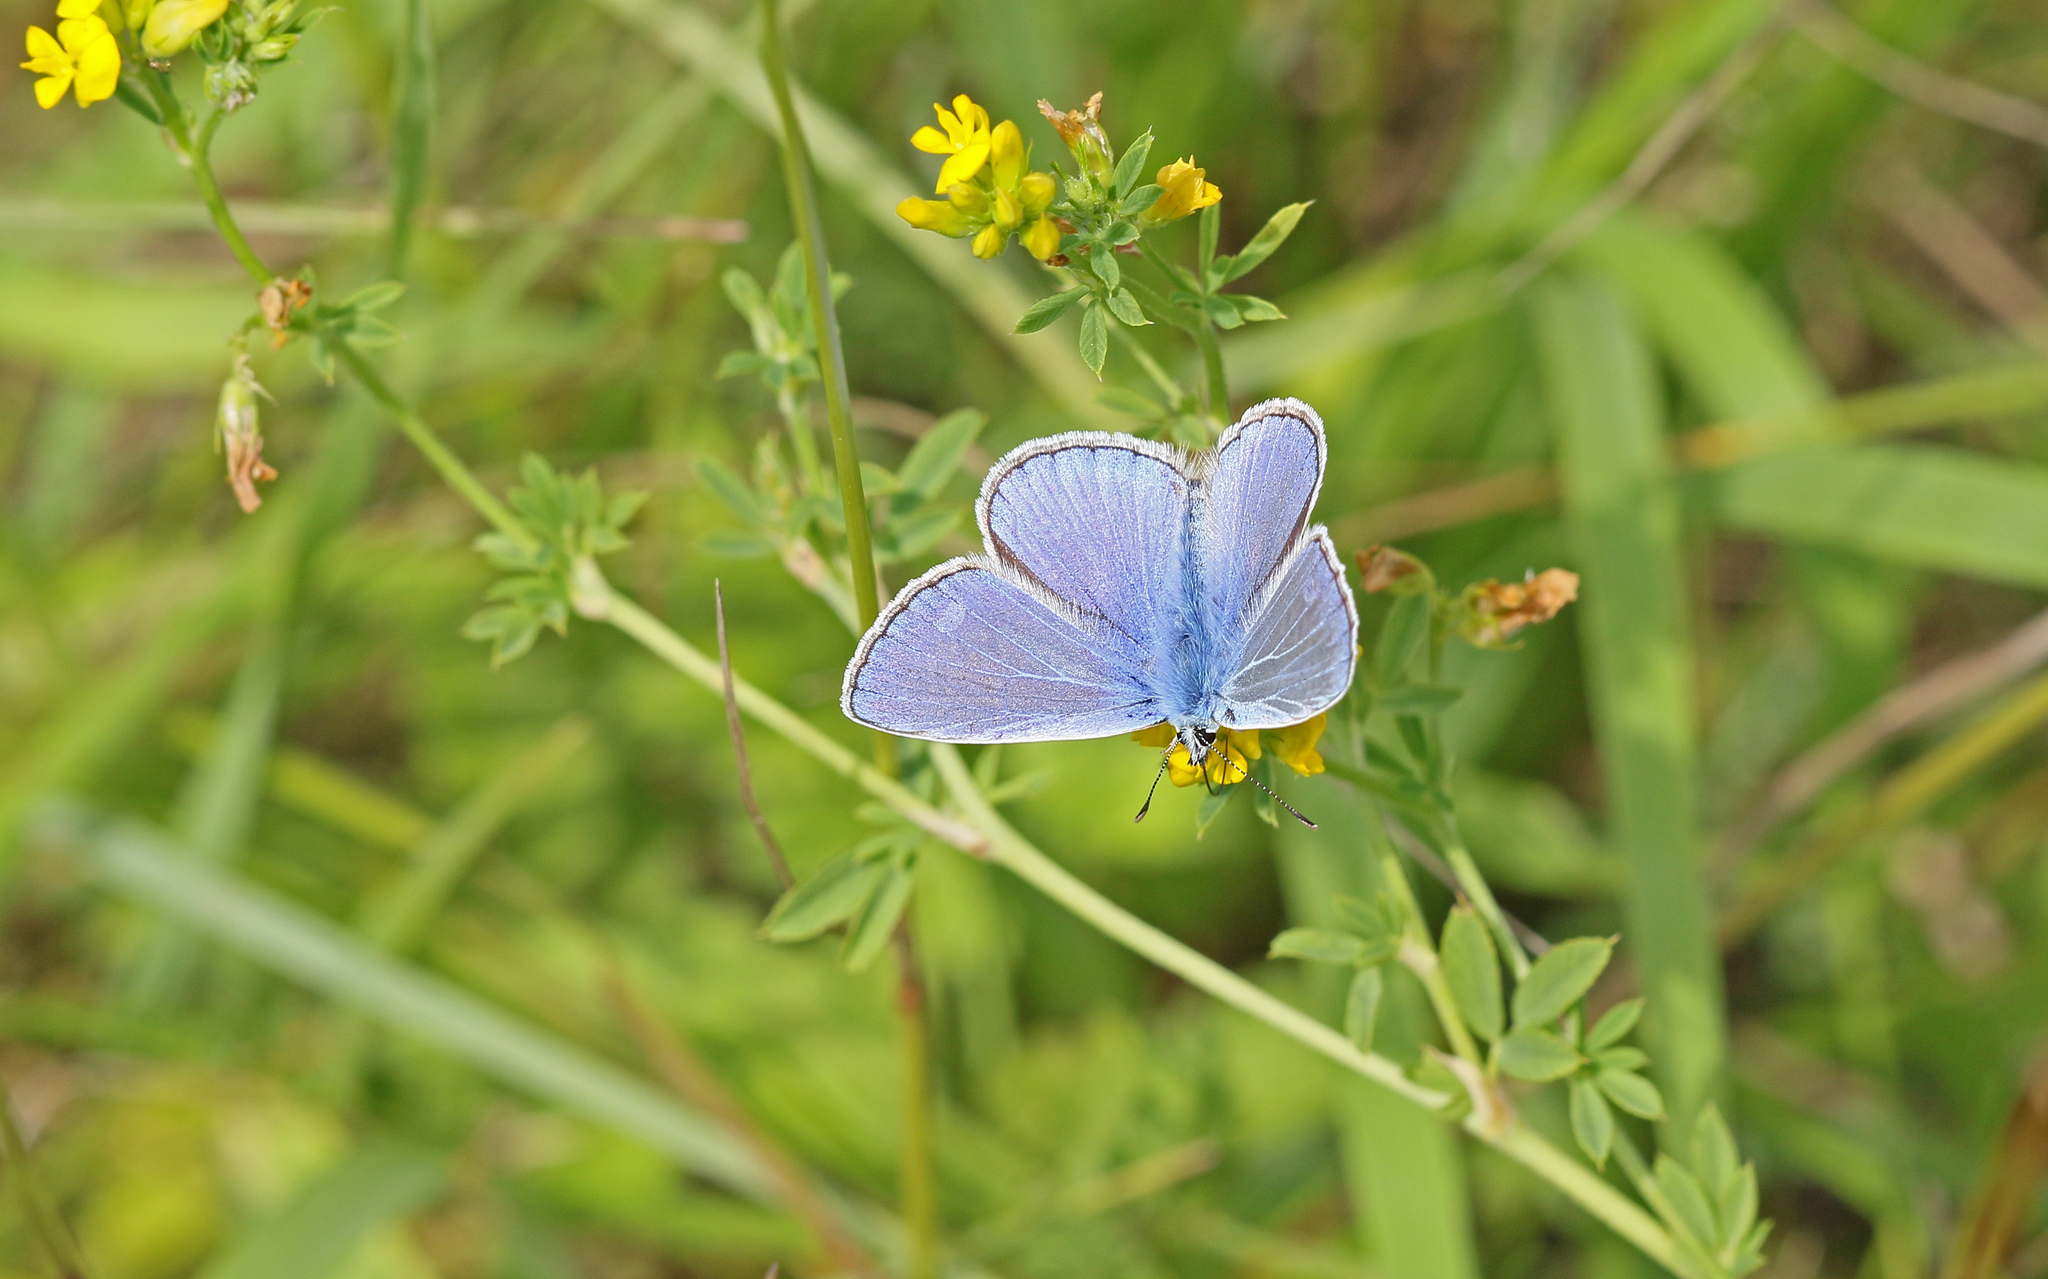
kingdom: Animalia
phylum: Arthropoda
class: Insecta
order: Lepidoptera
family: Lycaenidae
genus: Polyommatus
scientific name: Polyommatus icarus
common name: Common blue
